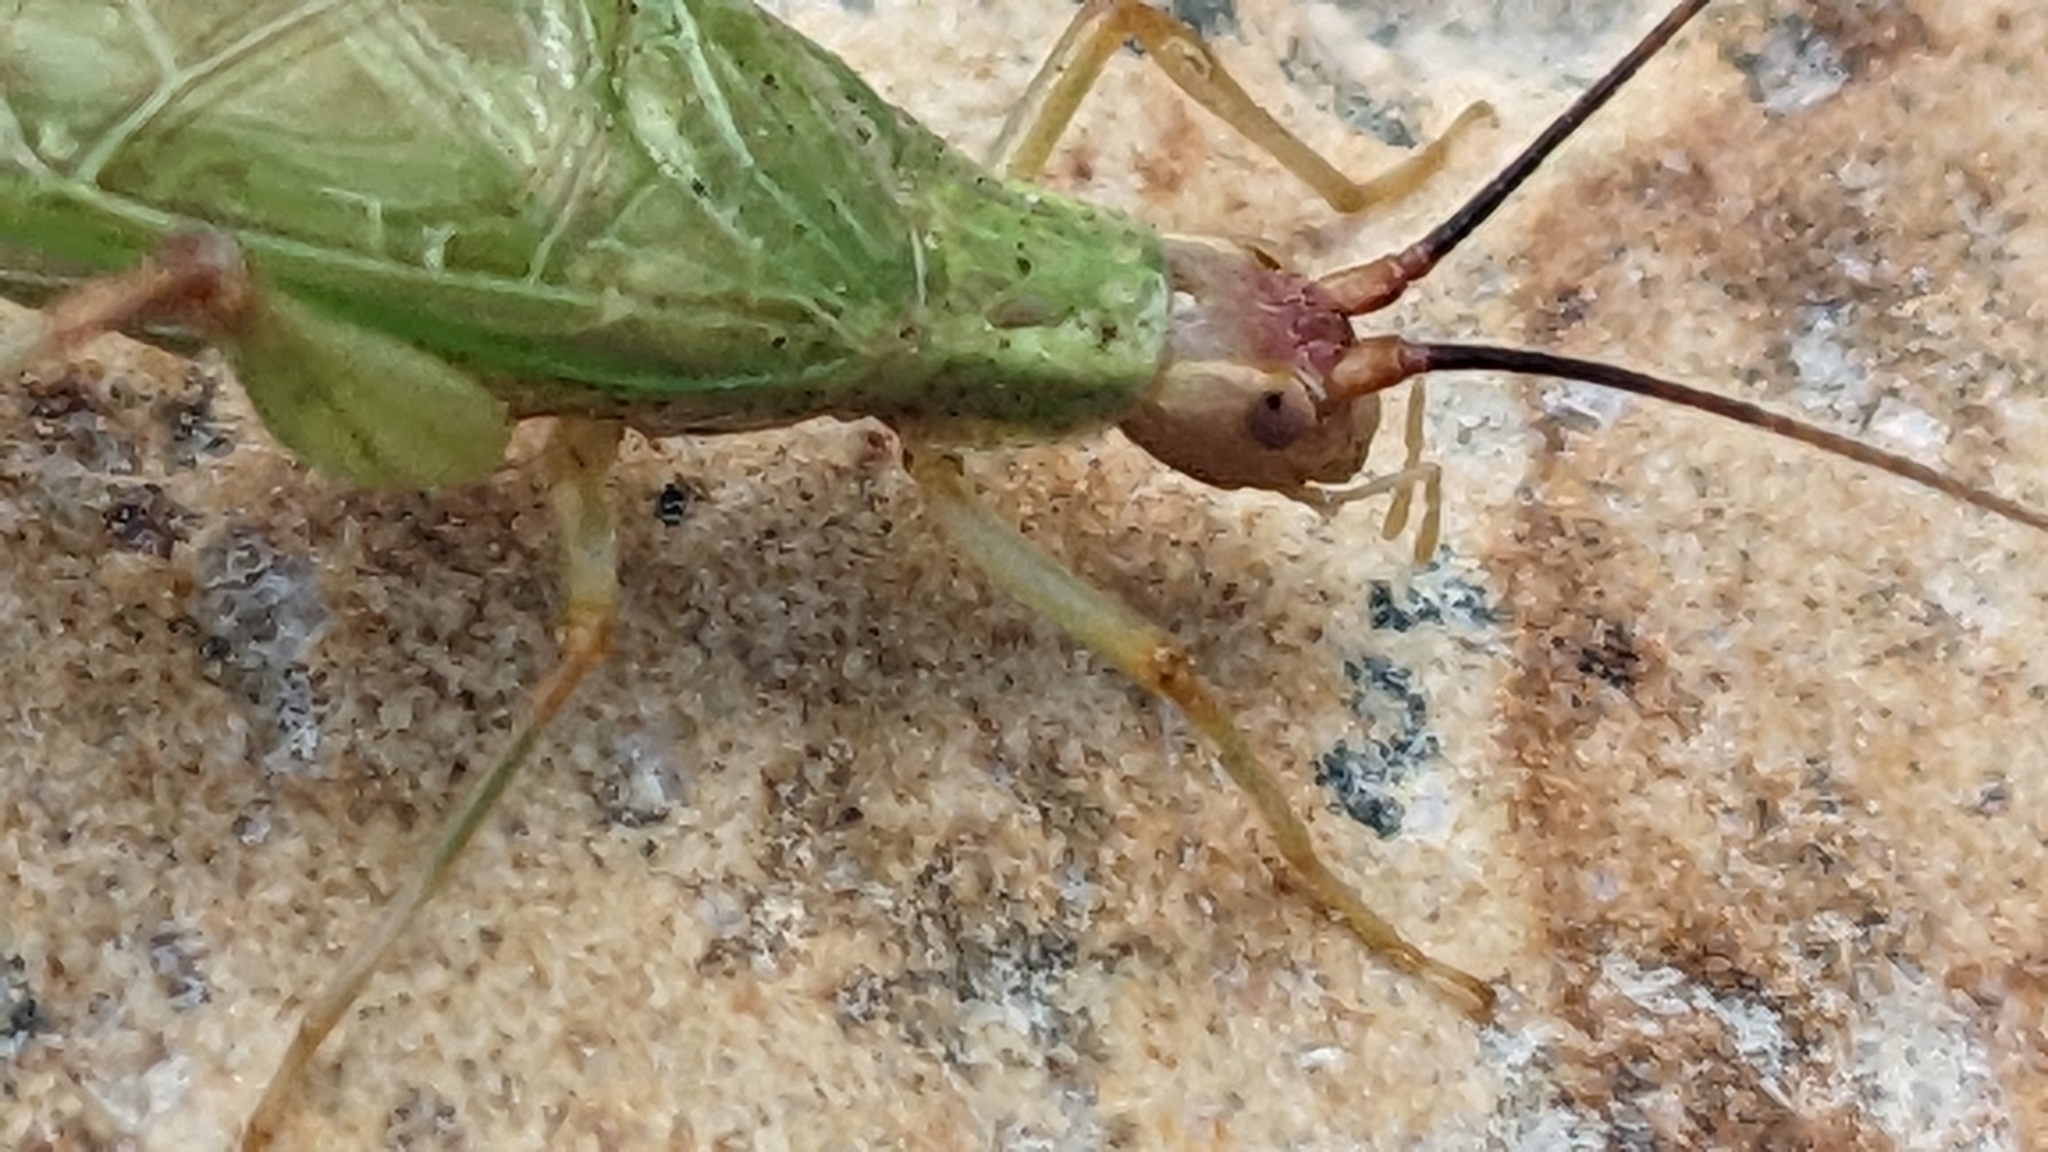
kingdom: Animalia
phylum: Arthropoda
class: Insecta
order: Orthoptera
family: Gryllidae
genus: Oecanthus
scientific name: Oecanthus californicus
